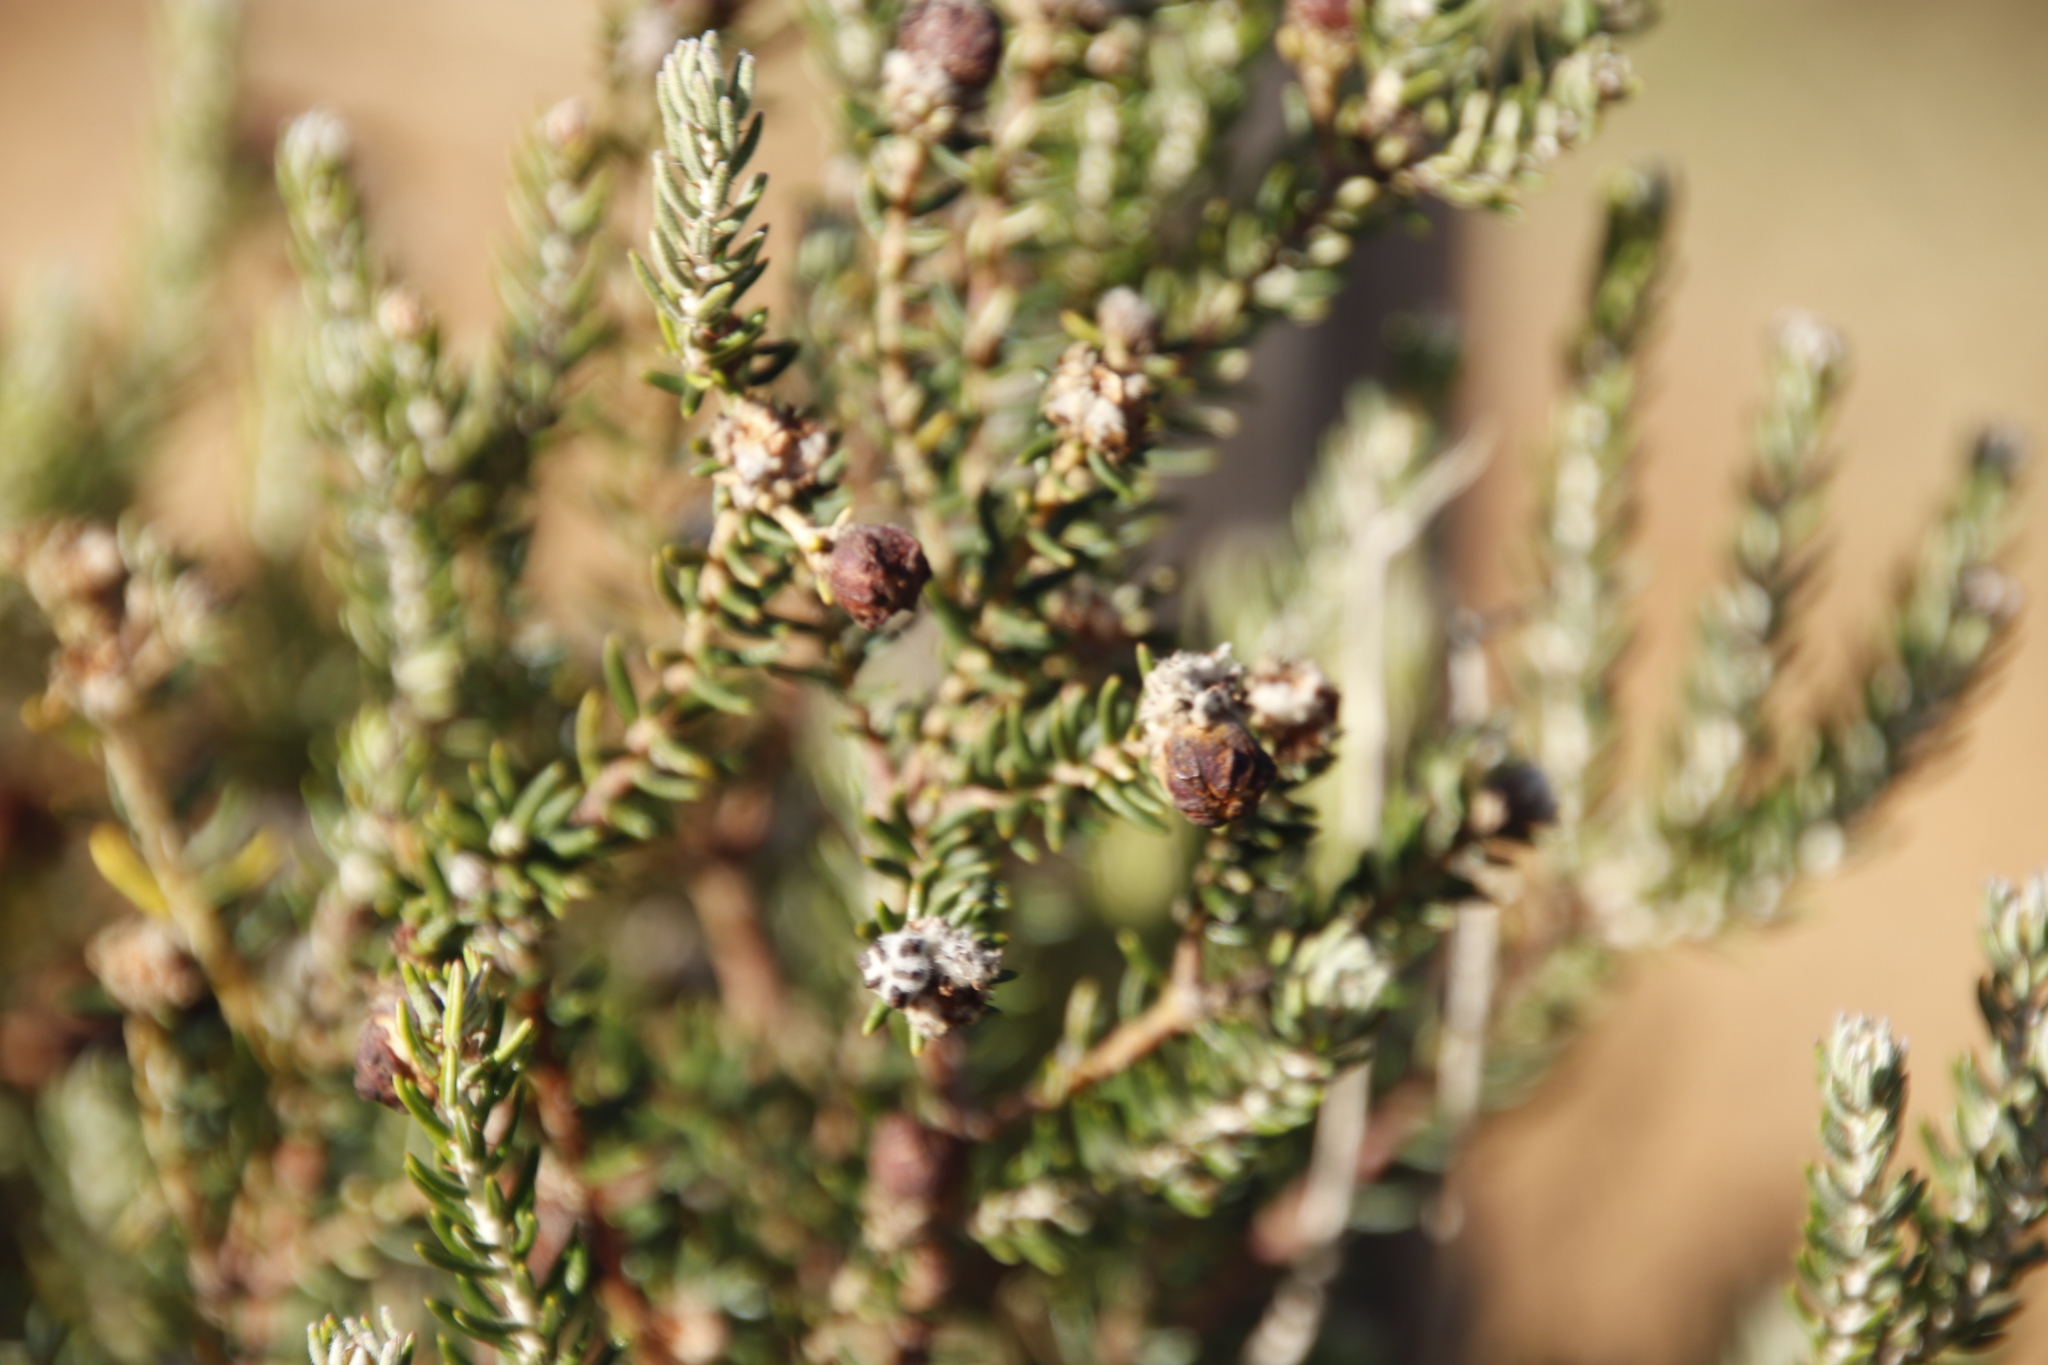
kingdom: Plantae
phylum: Tracheophyta
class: Magnoliopsida
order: Rosales
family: Rhamnaceae
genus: Trichocephalus
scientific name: Trichocephalus stipularis
